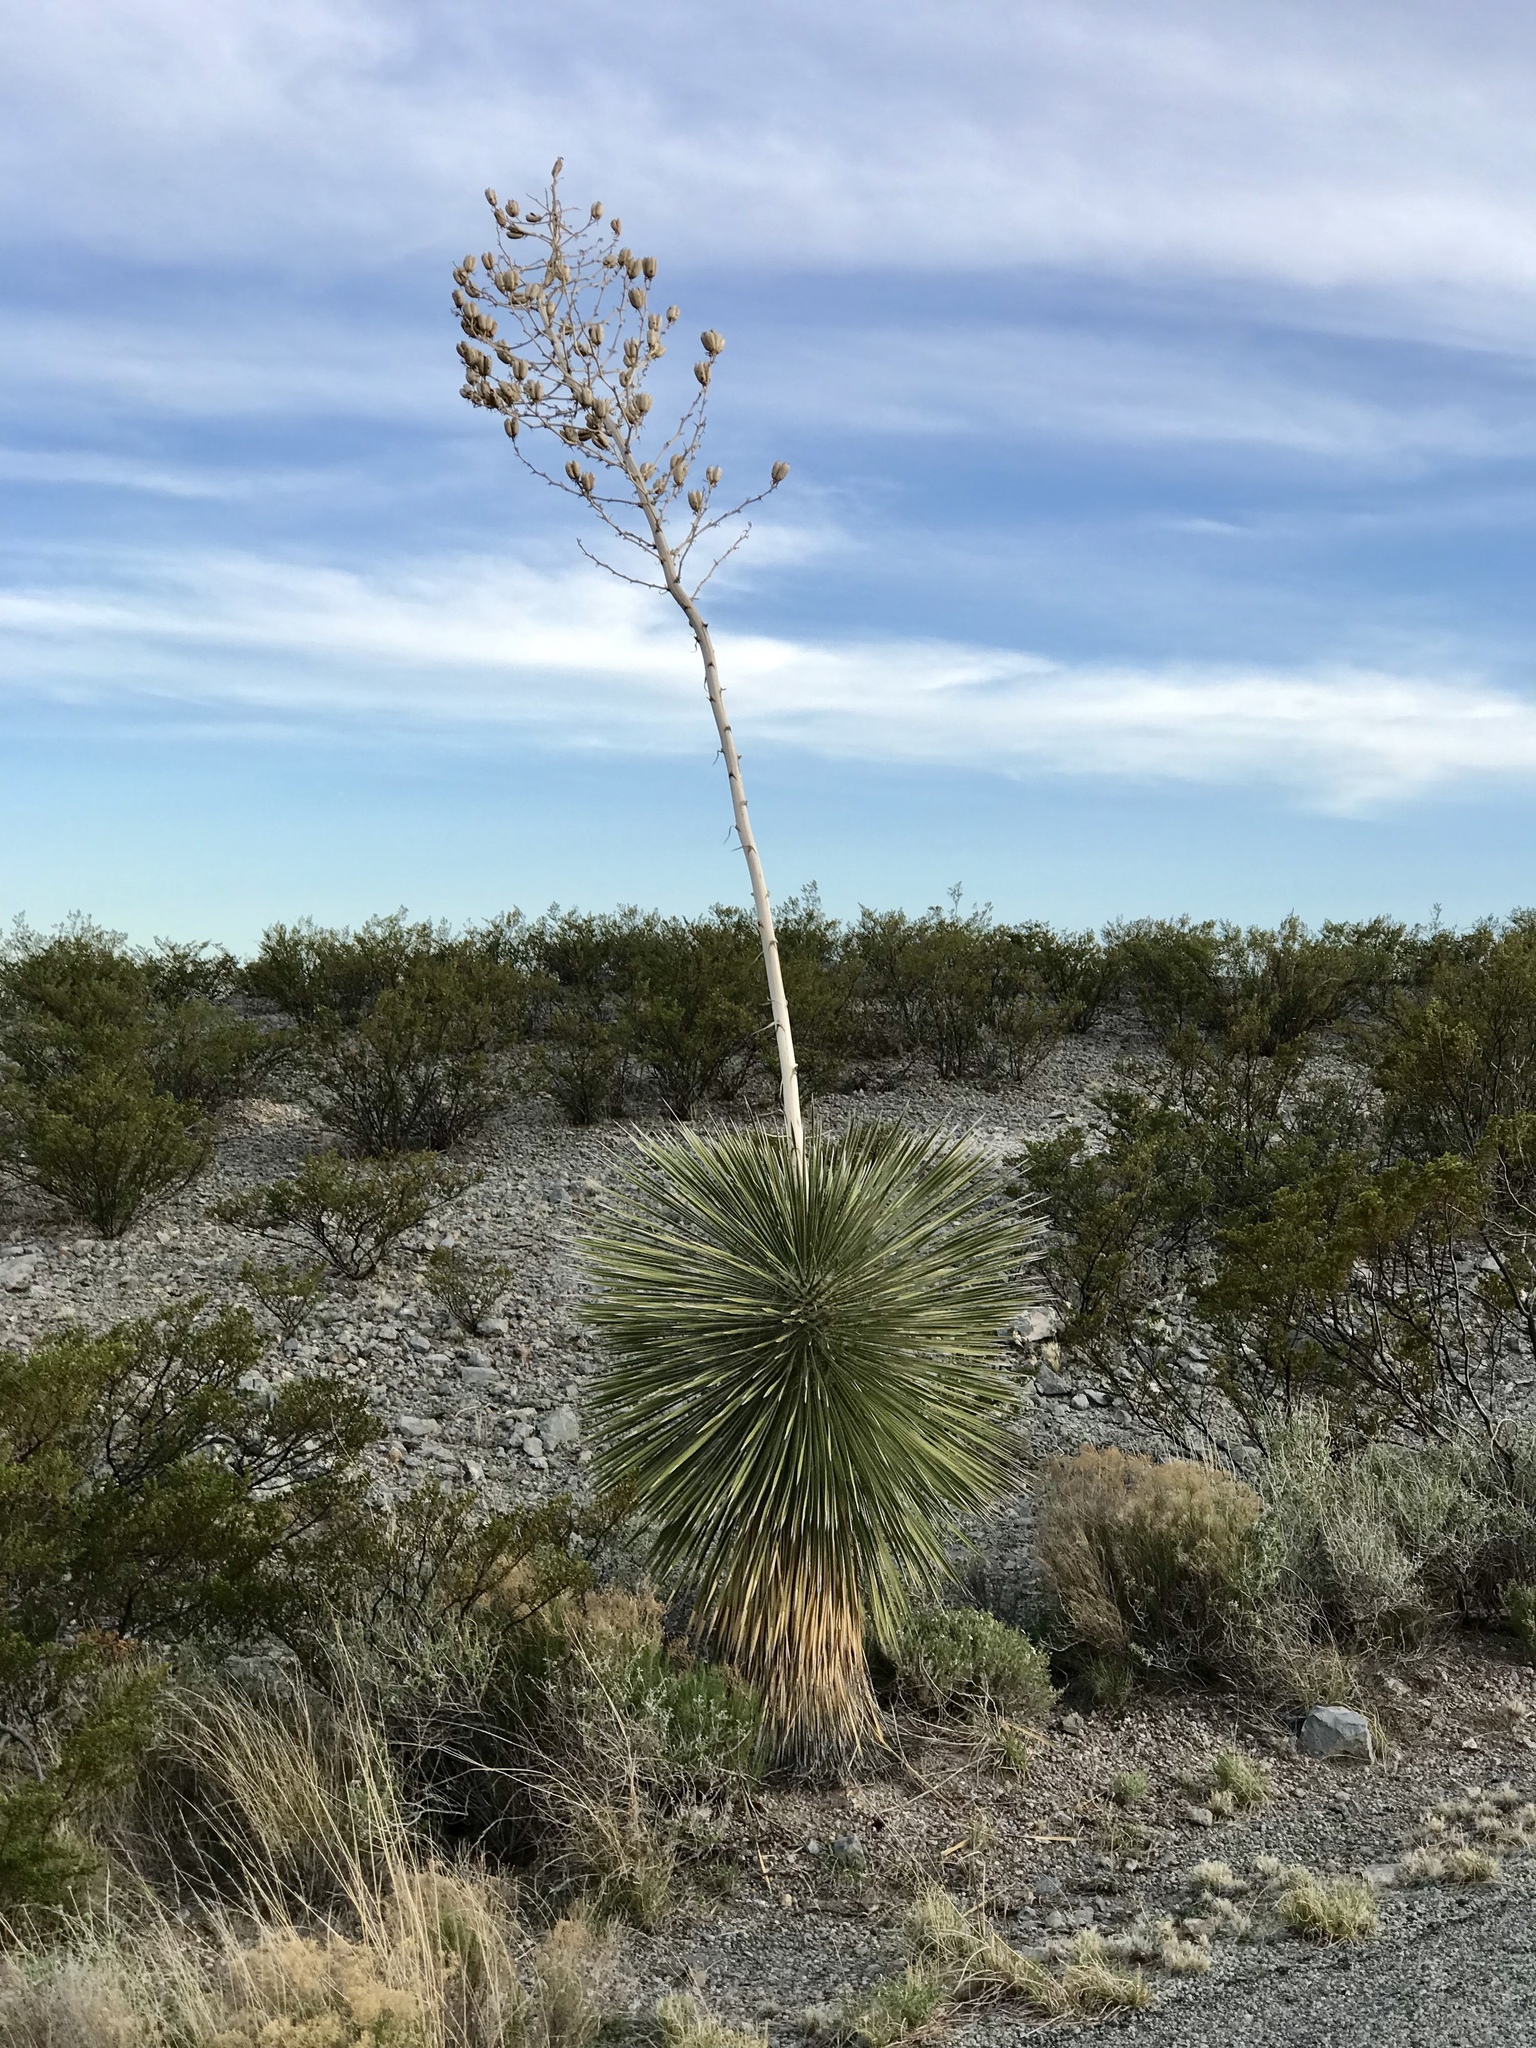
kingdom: Plantae
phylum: Tracheophyta
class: Liliopsida
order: Asparagales
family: Asparagaceae
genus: Yucca
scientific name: Yucca elata
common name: Palmella
